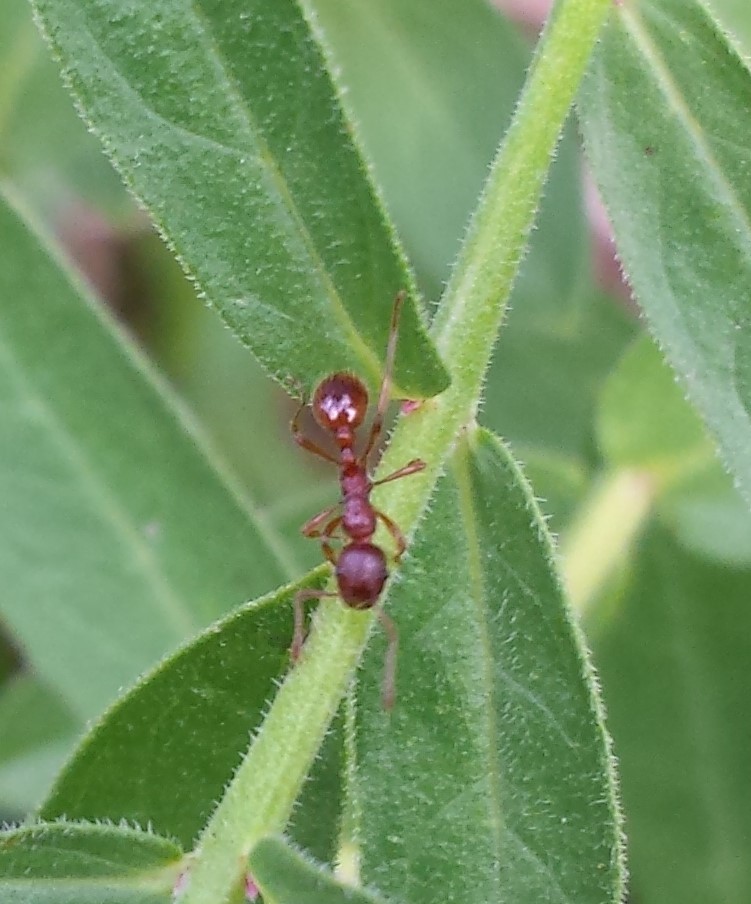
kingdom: Animalia
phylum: Arthropoda
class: Insecta
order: Hymenoptera
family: Formicidae
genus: Myrmica
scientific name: Myrmica rubra
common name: European fire ant
